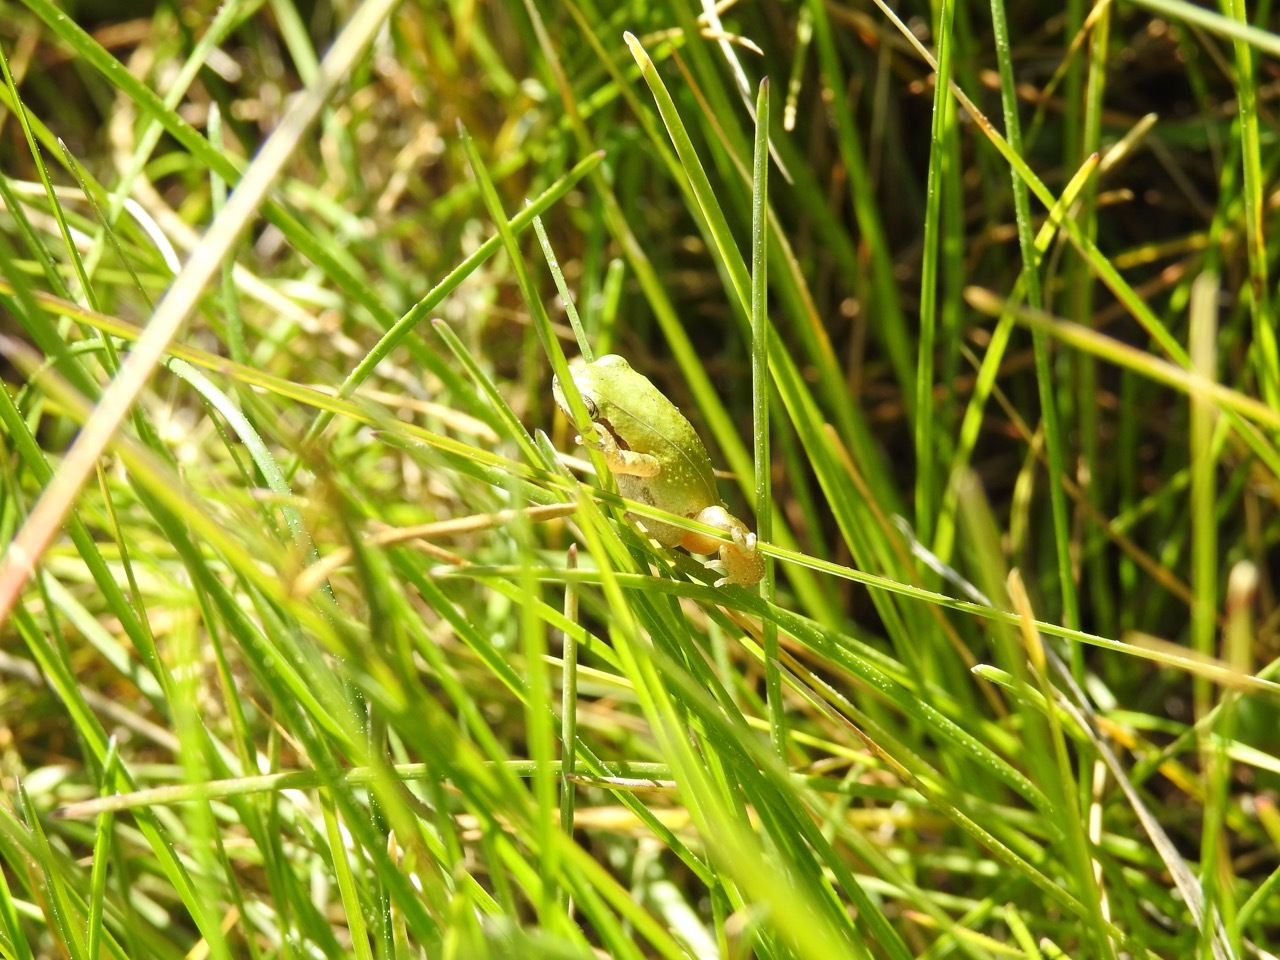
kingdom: Animalia
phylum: Chordata
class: Amphibia
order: Anura
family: Hylidae
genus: Pseudacris
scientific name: Pseudacris regilla
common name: Pacific chorus frog
